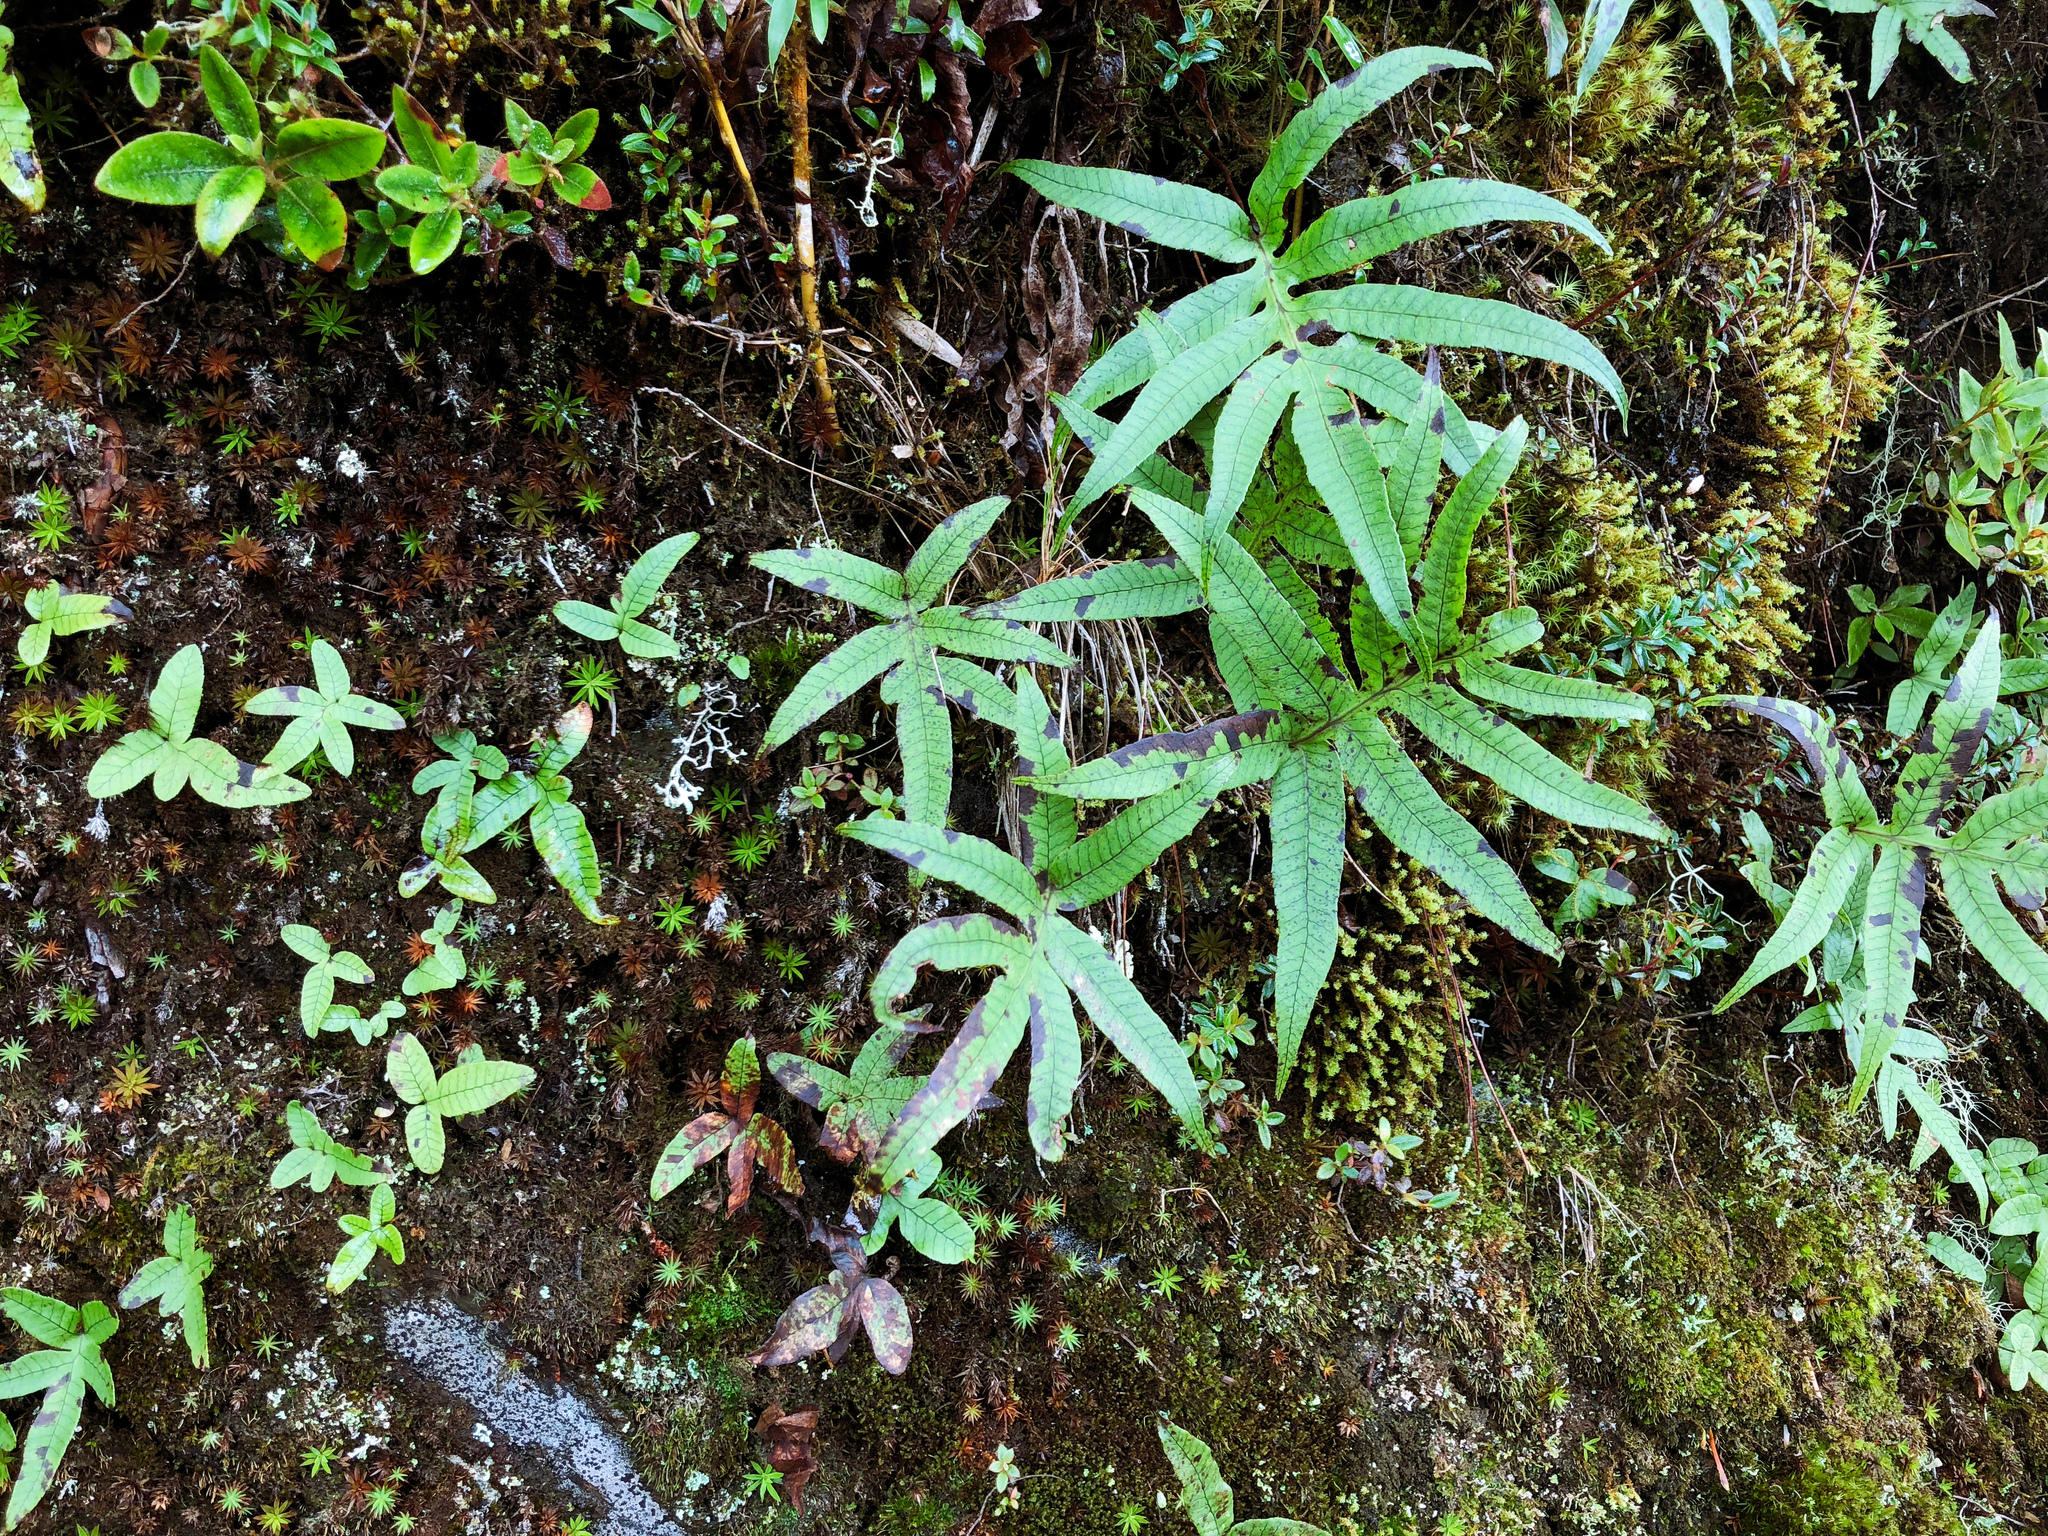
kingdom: Plantae
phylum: Tracheophyta
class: Polypodiopsida
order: Polypodiales
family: Polypodiaceae
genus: Selliguea
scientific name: Selliguea quasidivaricata
